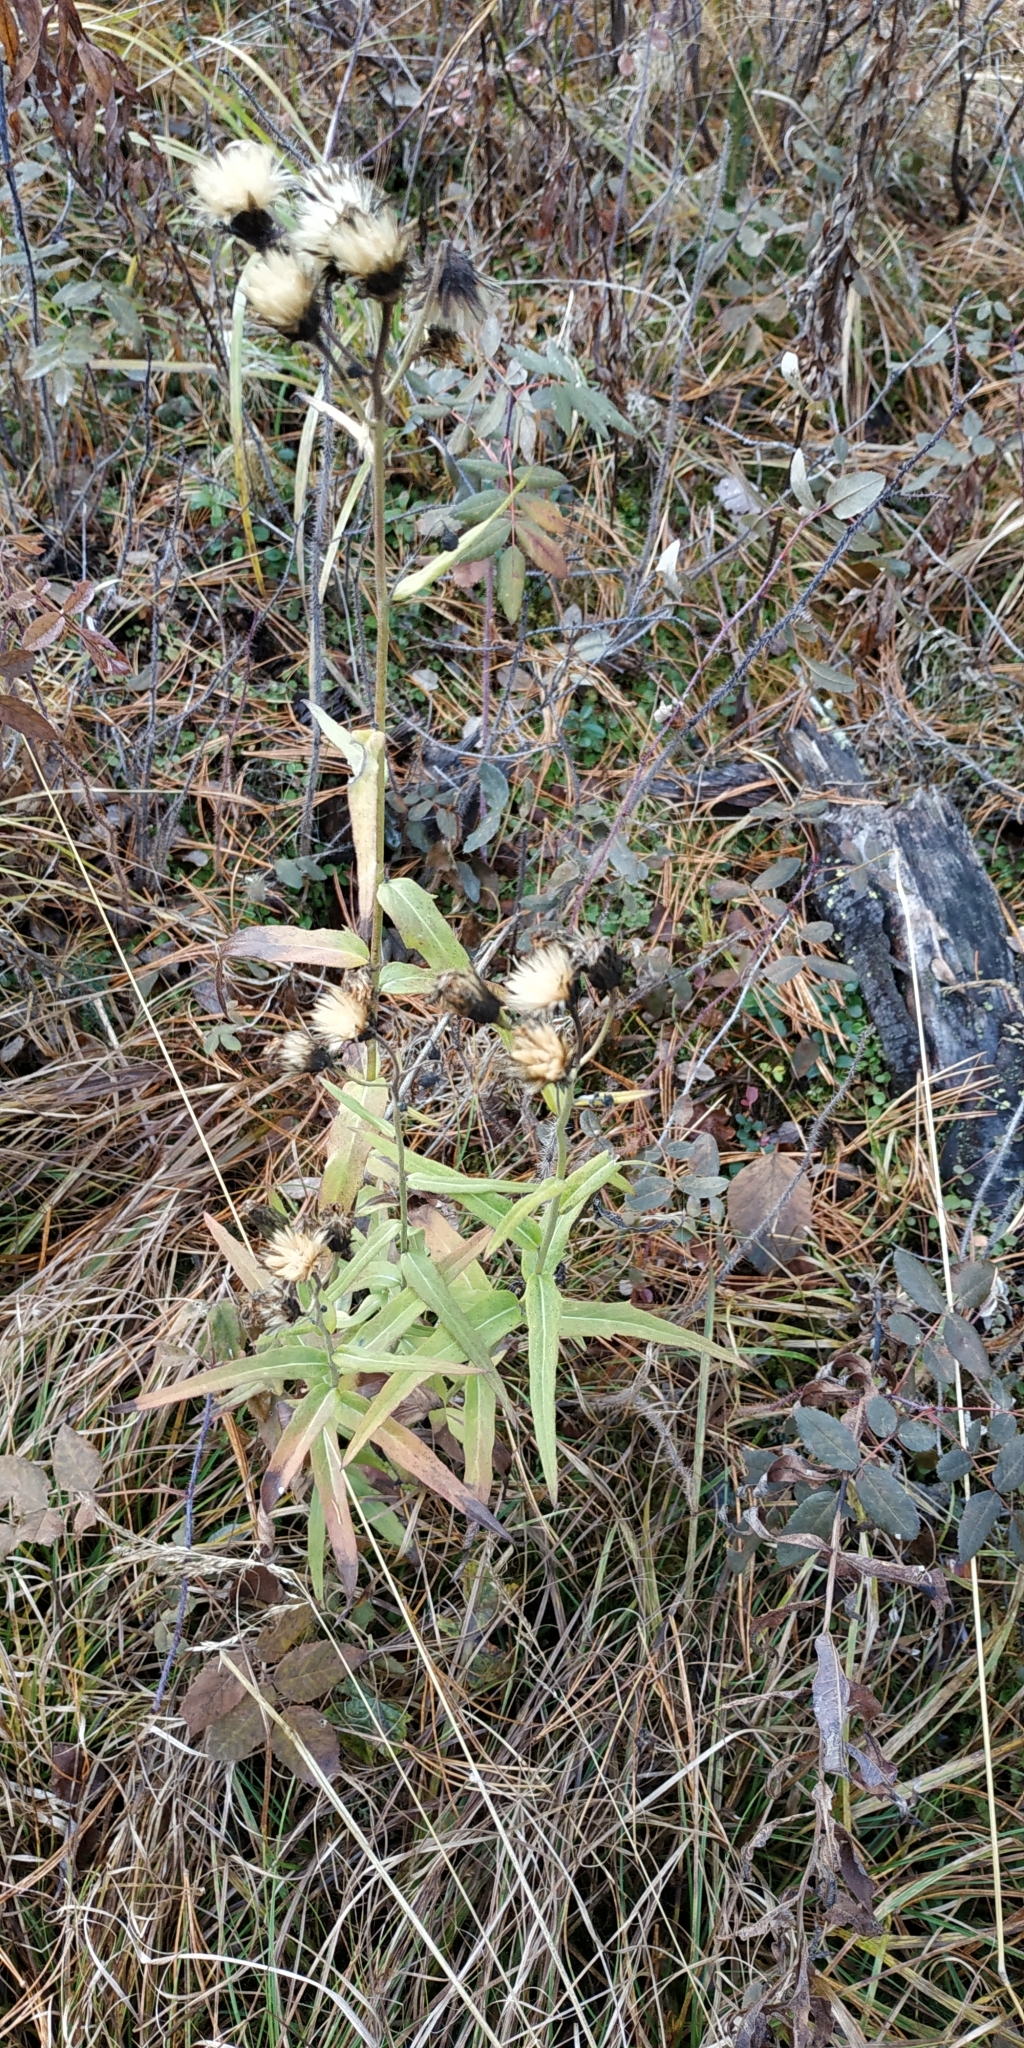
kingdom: Plantae
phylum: Tracheophyta
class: Magnoliopsida
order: Asterales
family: Asteraceae
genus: Hieracium
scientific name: Hieracium umbellatum
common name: Northern hawkweed
